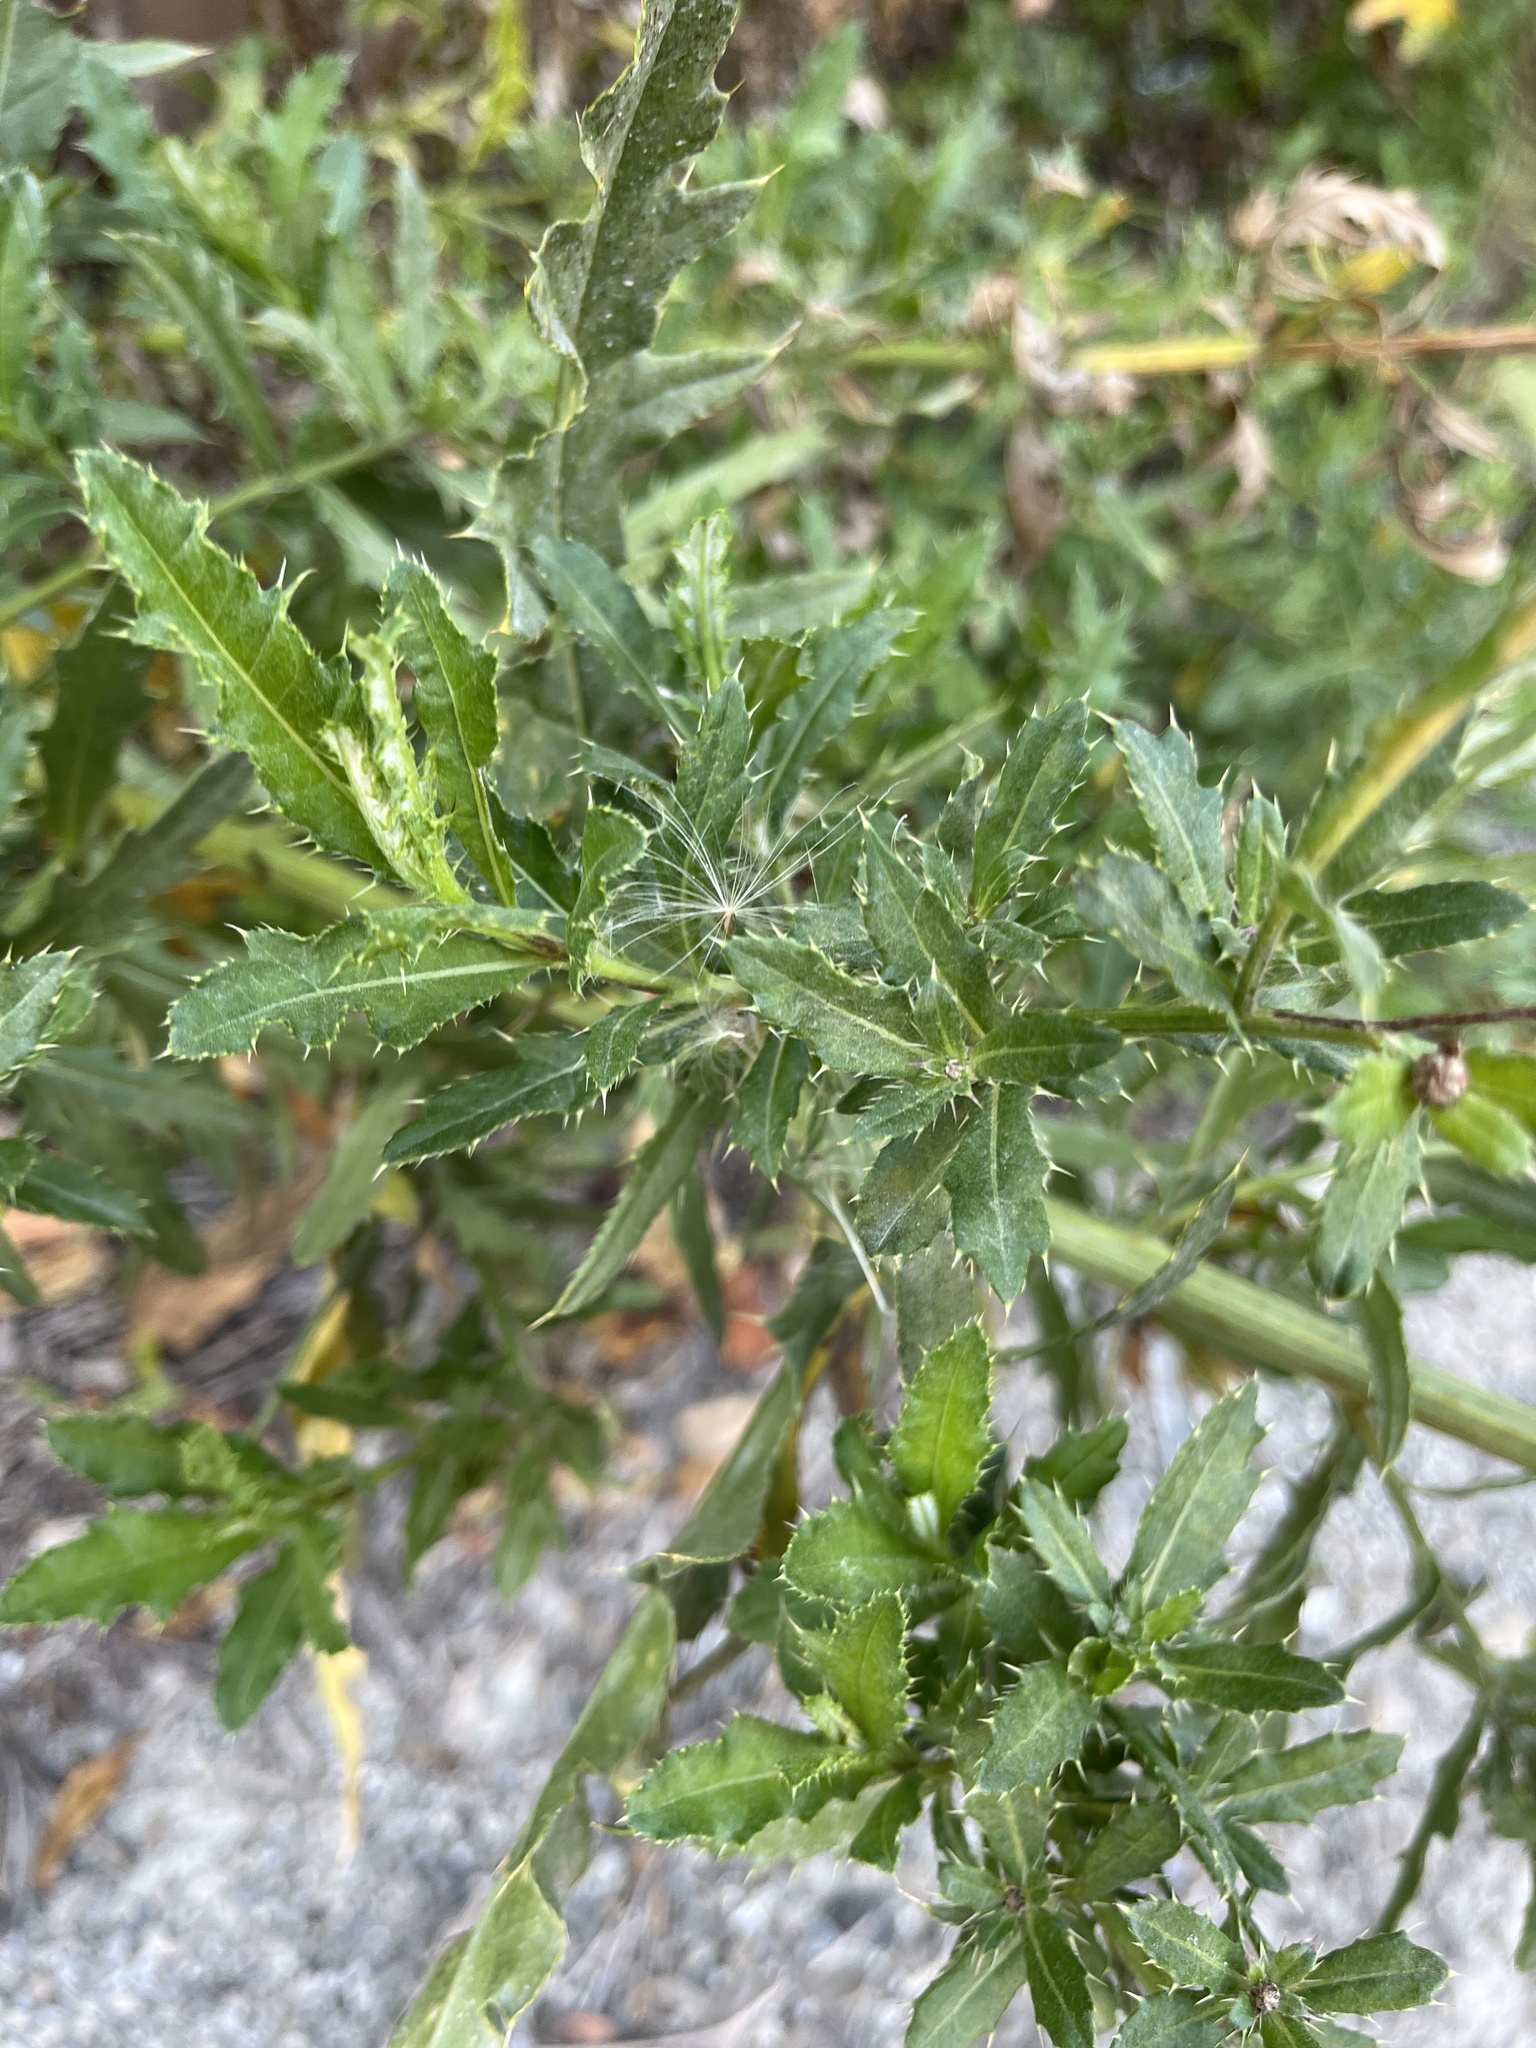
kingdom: Plantae
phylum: Tracheophyta
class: Magnoliopsida
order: Asterales
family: Asteraceae
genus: Cirsium
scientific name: Cirsium arvense
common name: Creeping thistle
